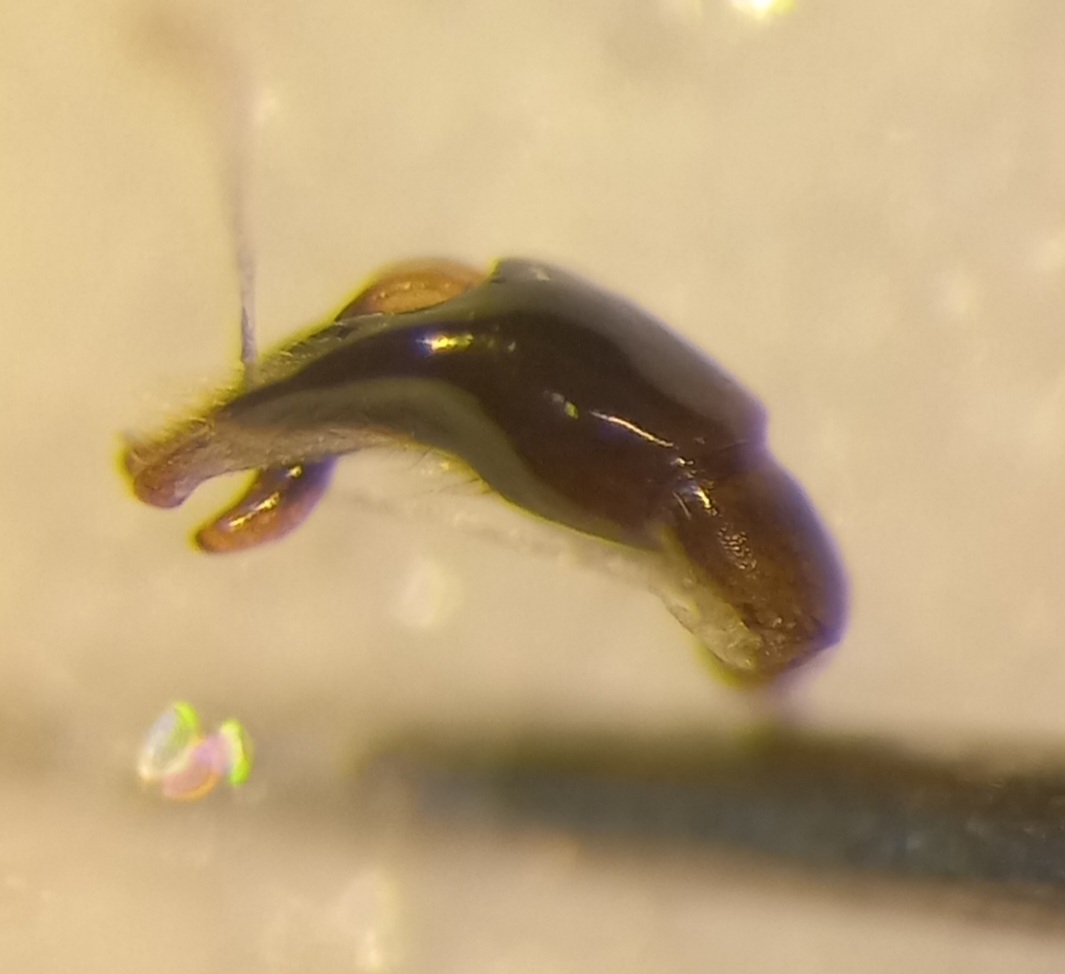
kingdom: Animalia
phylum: Arthropoda
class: Insecta
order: Hymenoptera
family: Andrenidae
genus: Andrena
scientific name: Andrena flavipes
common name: Yellow-legged mining bee
